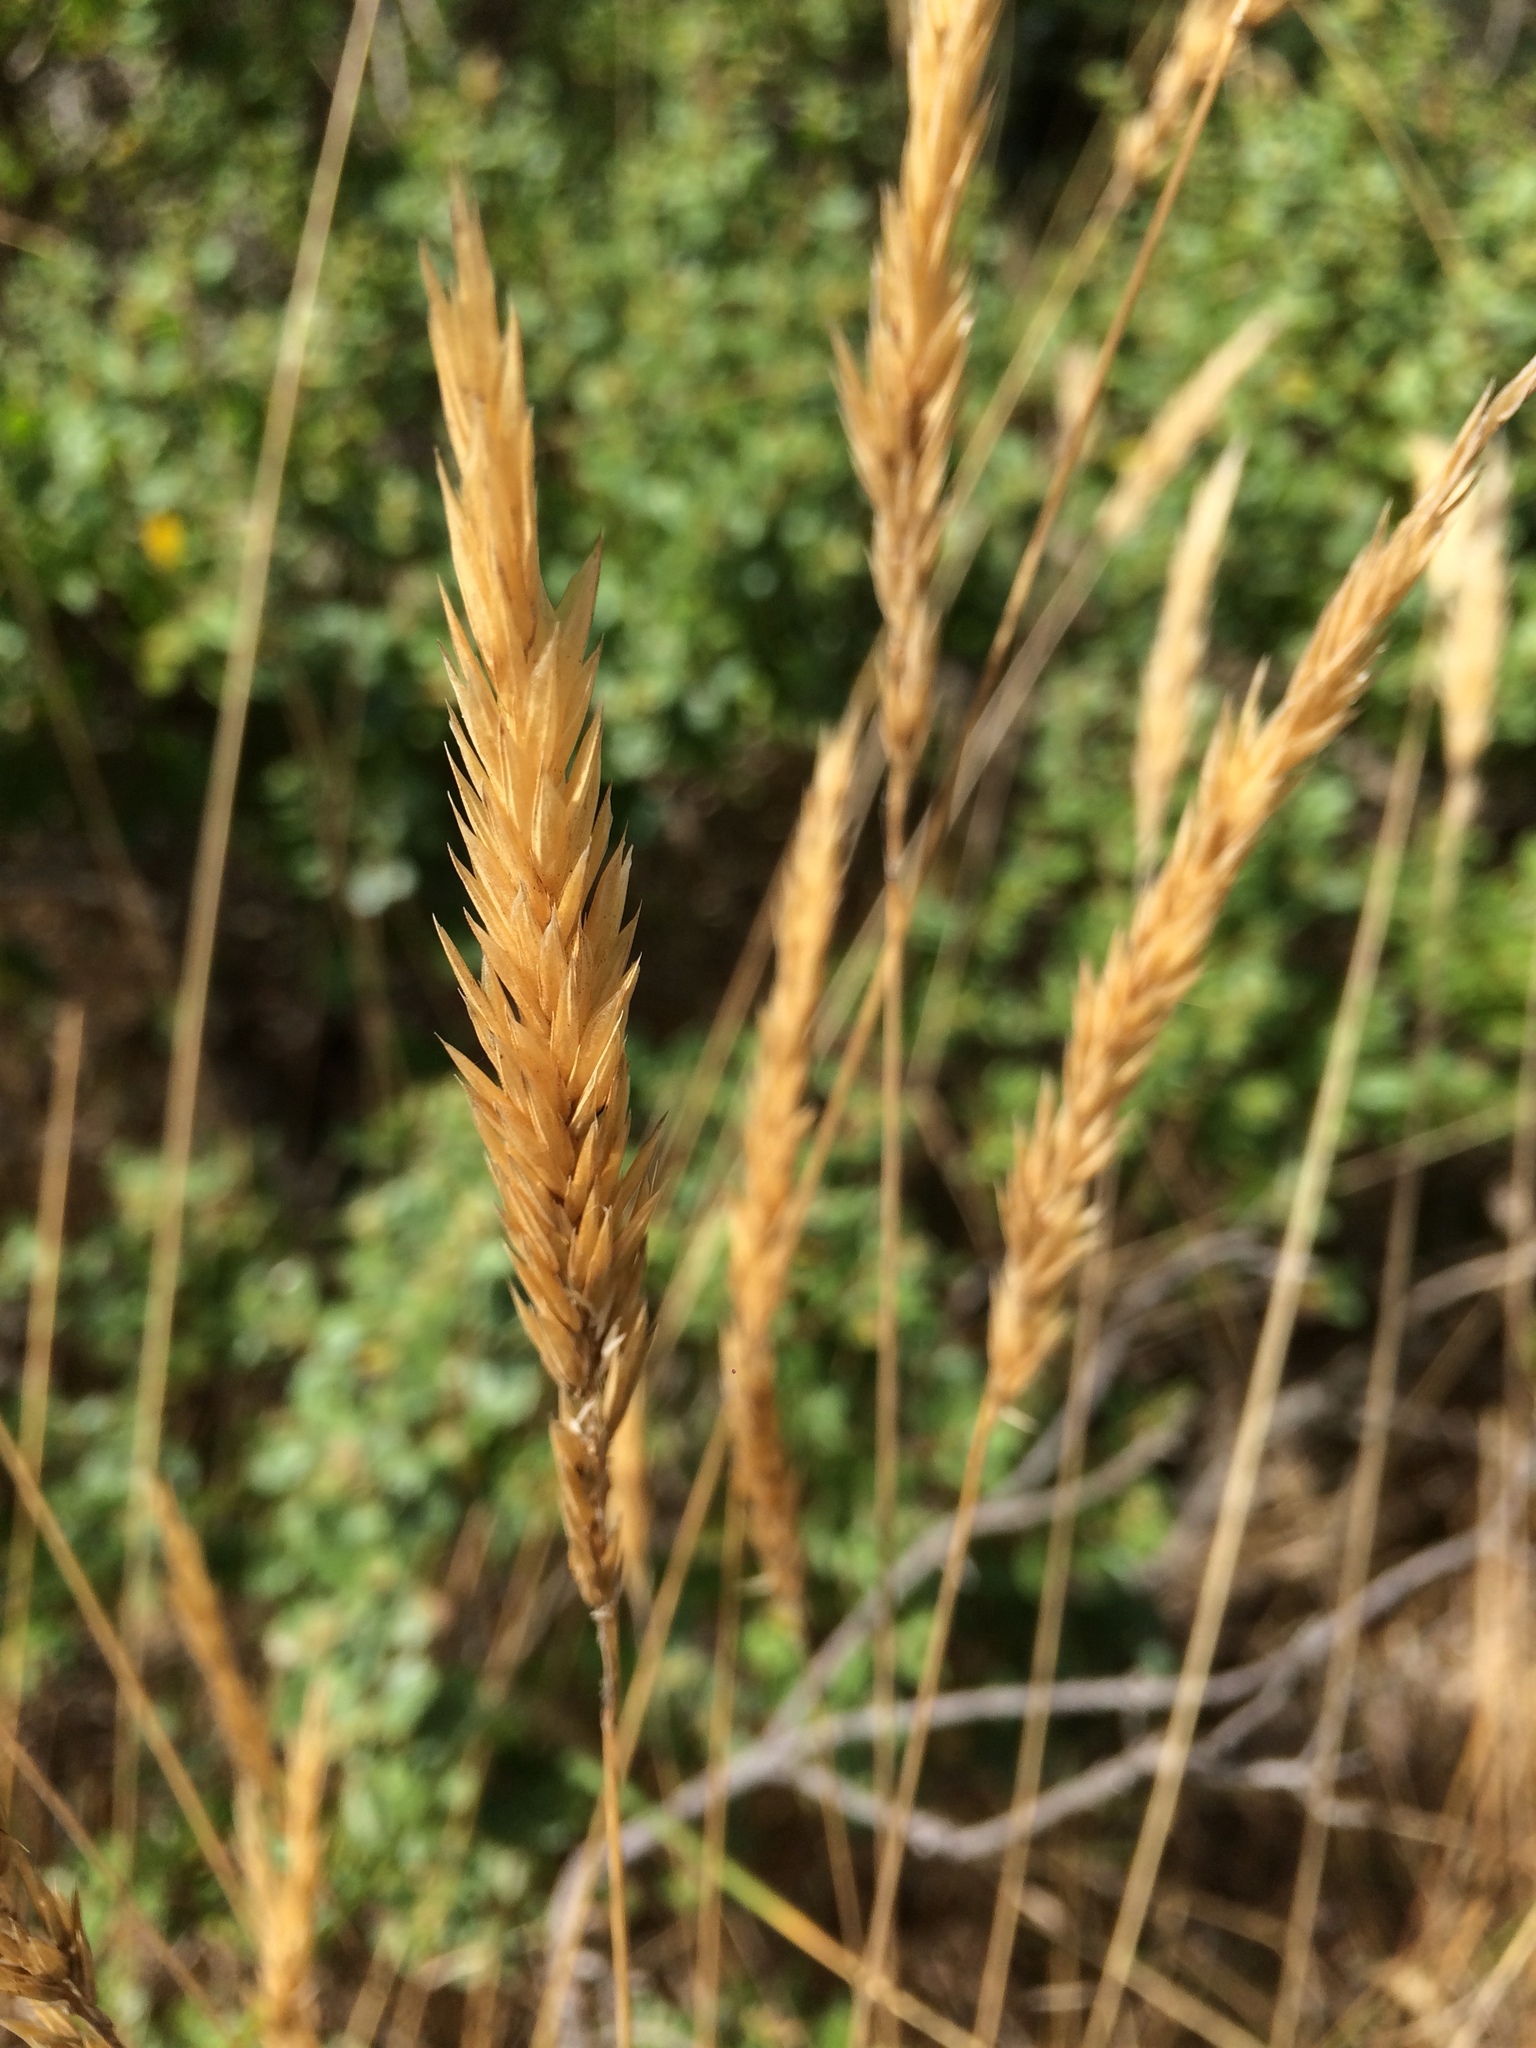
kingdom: Plantae
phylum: Tracheophyta
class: Liliopsida
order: Poales
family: Poaceae
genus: Anthoxanthum
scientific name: Anthoxanthum odoratum
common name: Sweet vernalgrass
